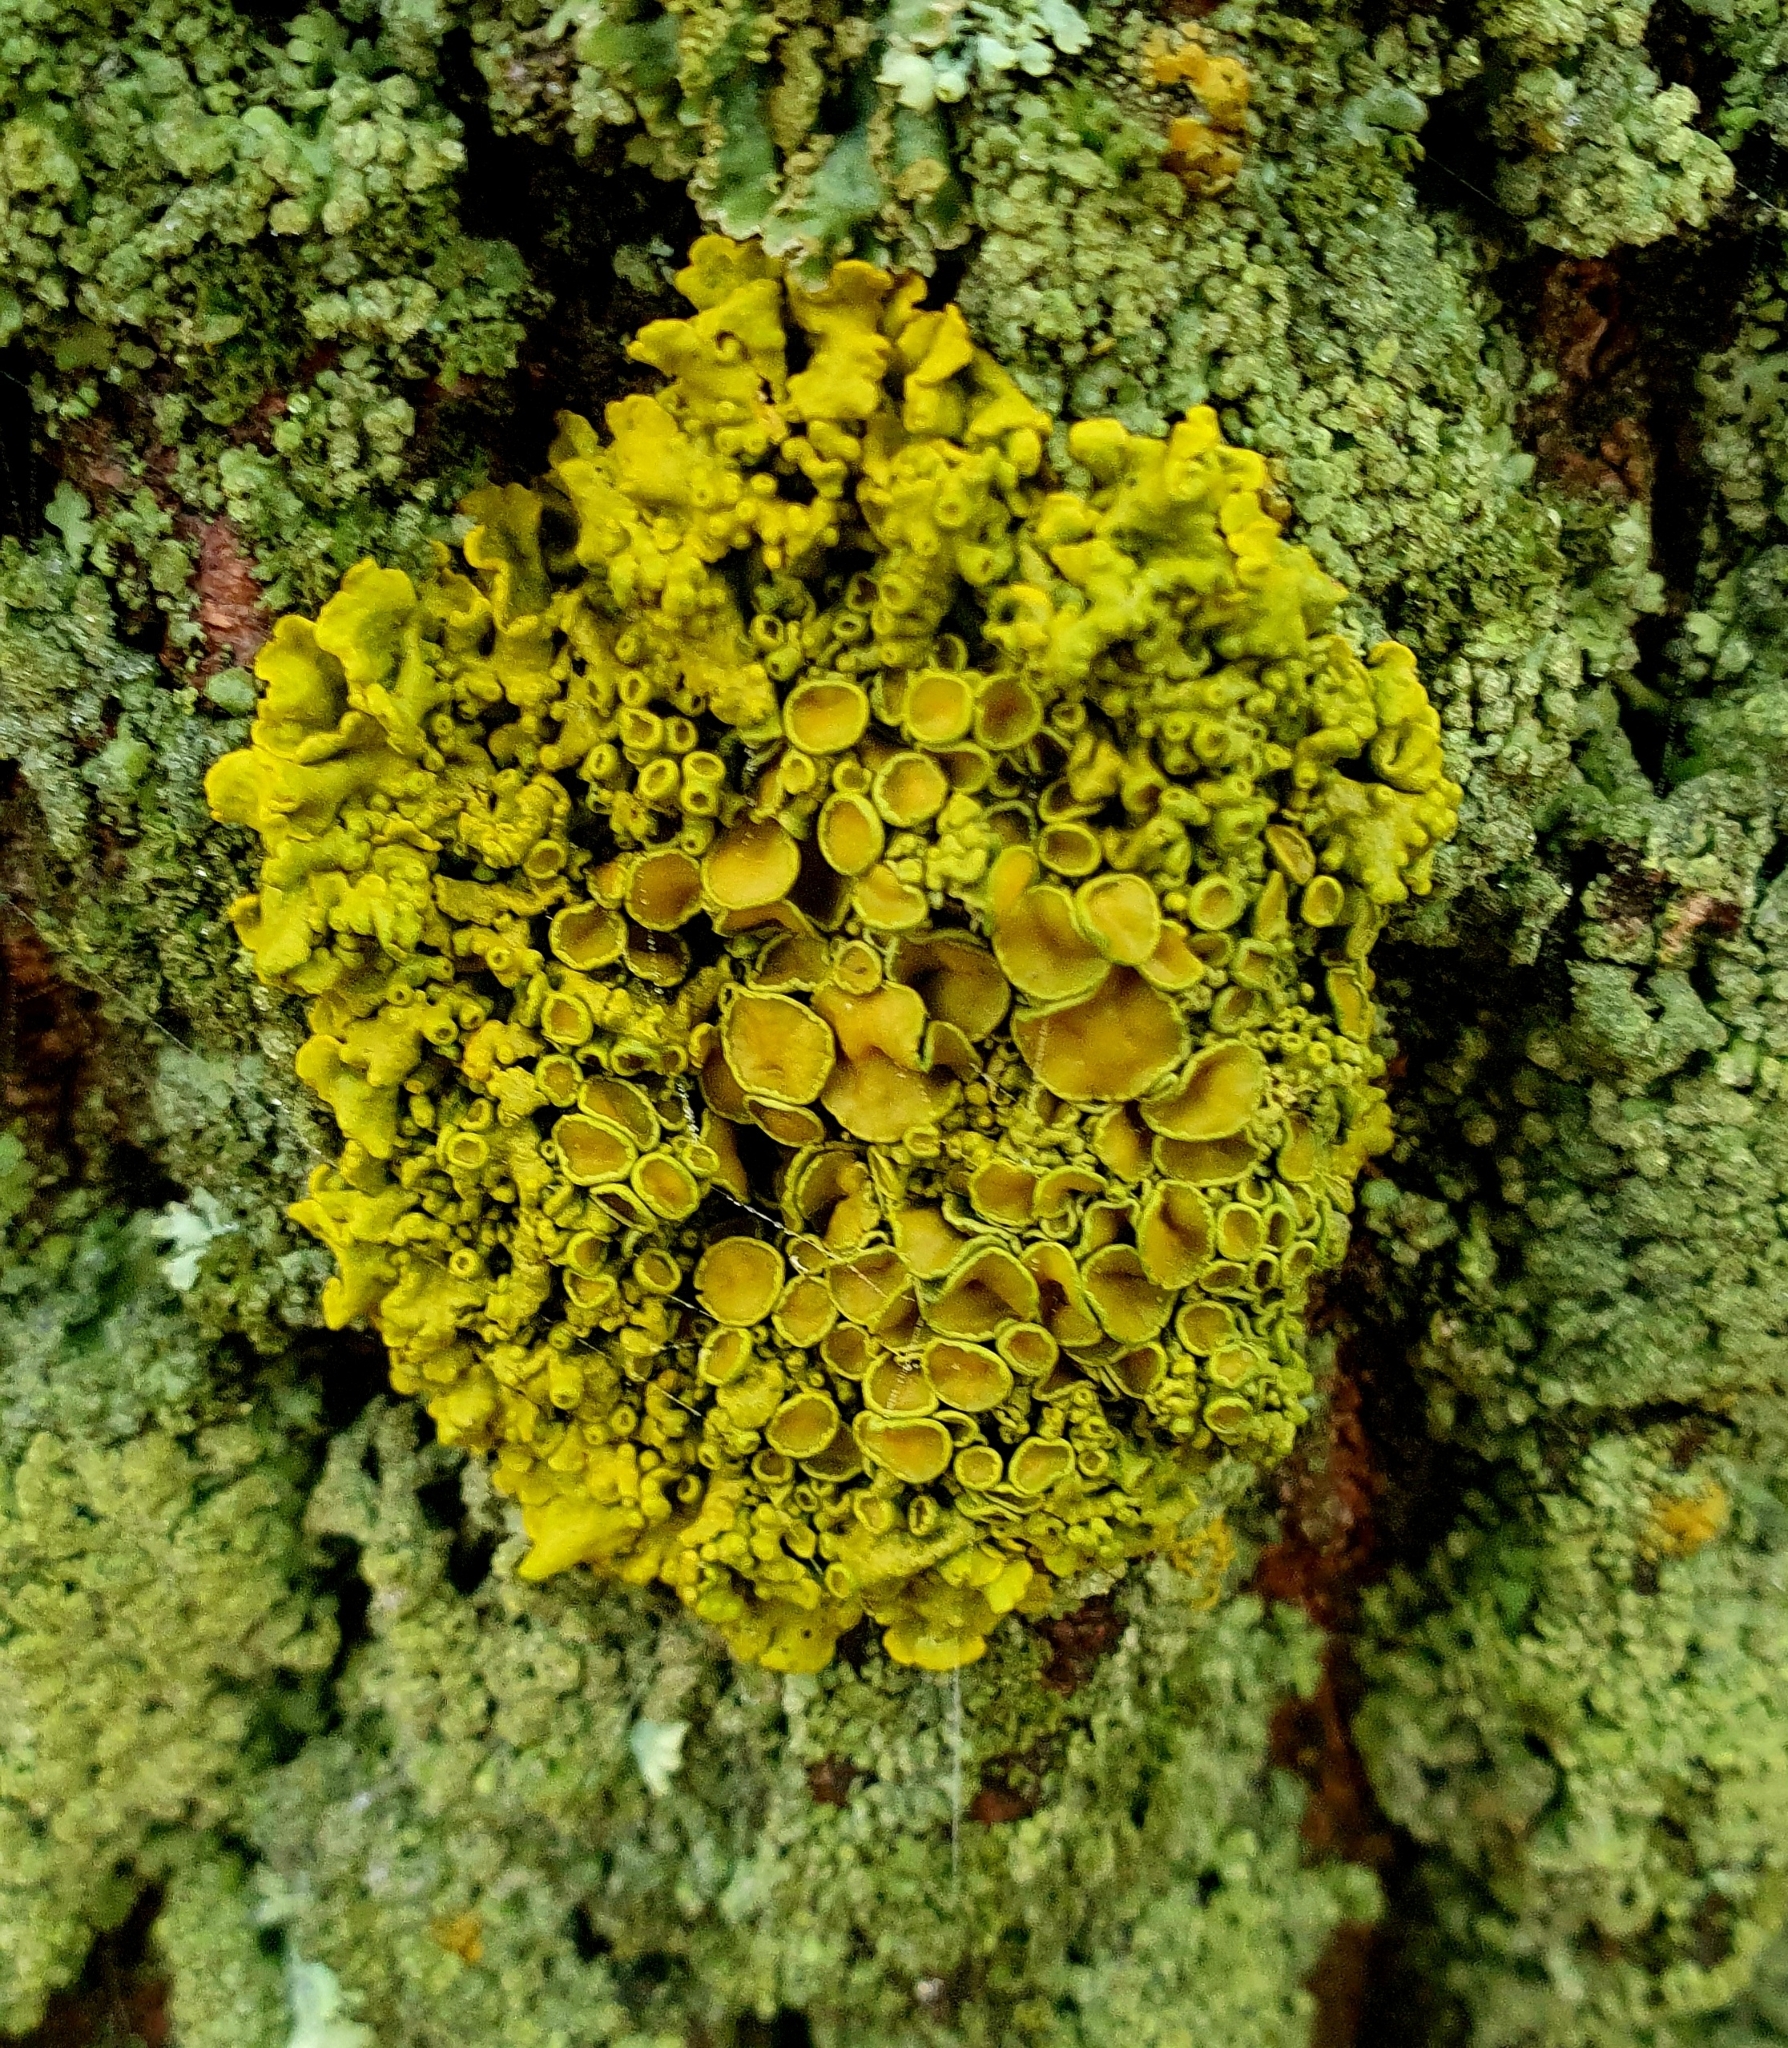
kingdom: Fungi
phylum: Ascomycota
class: Lecanoromycetes
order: Teloschistales
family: Teloschistaceae
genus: Xanthoria
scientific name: Xanthoria parietina
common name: Common orange lichen
